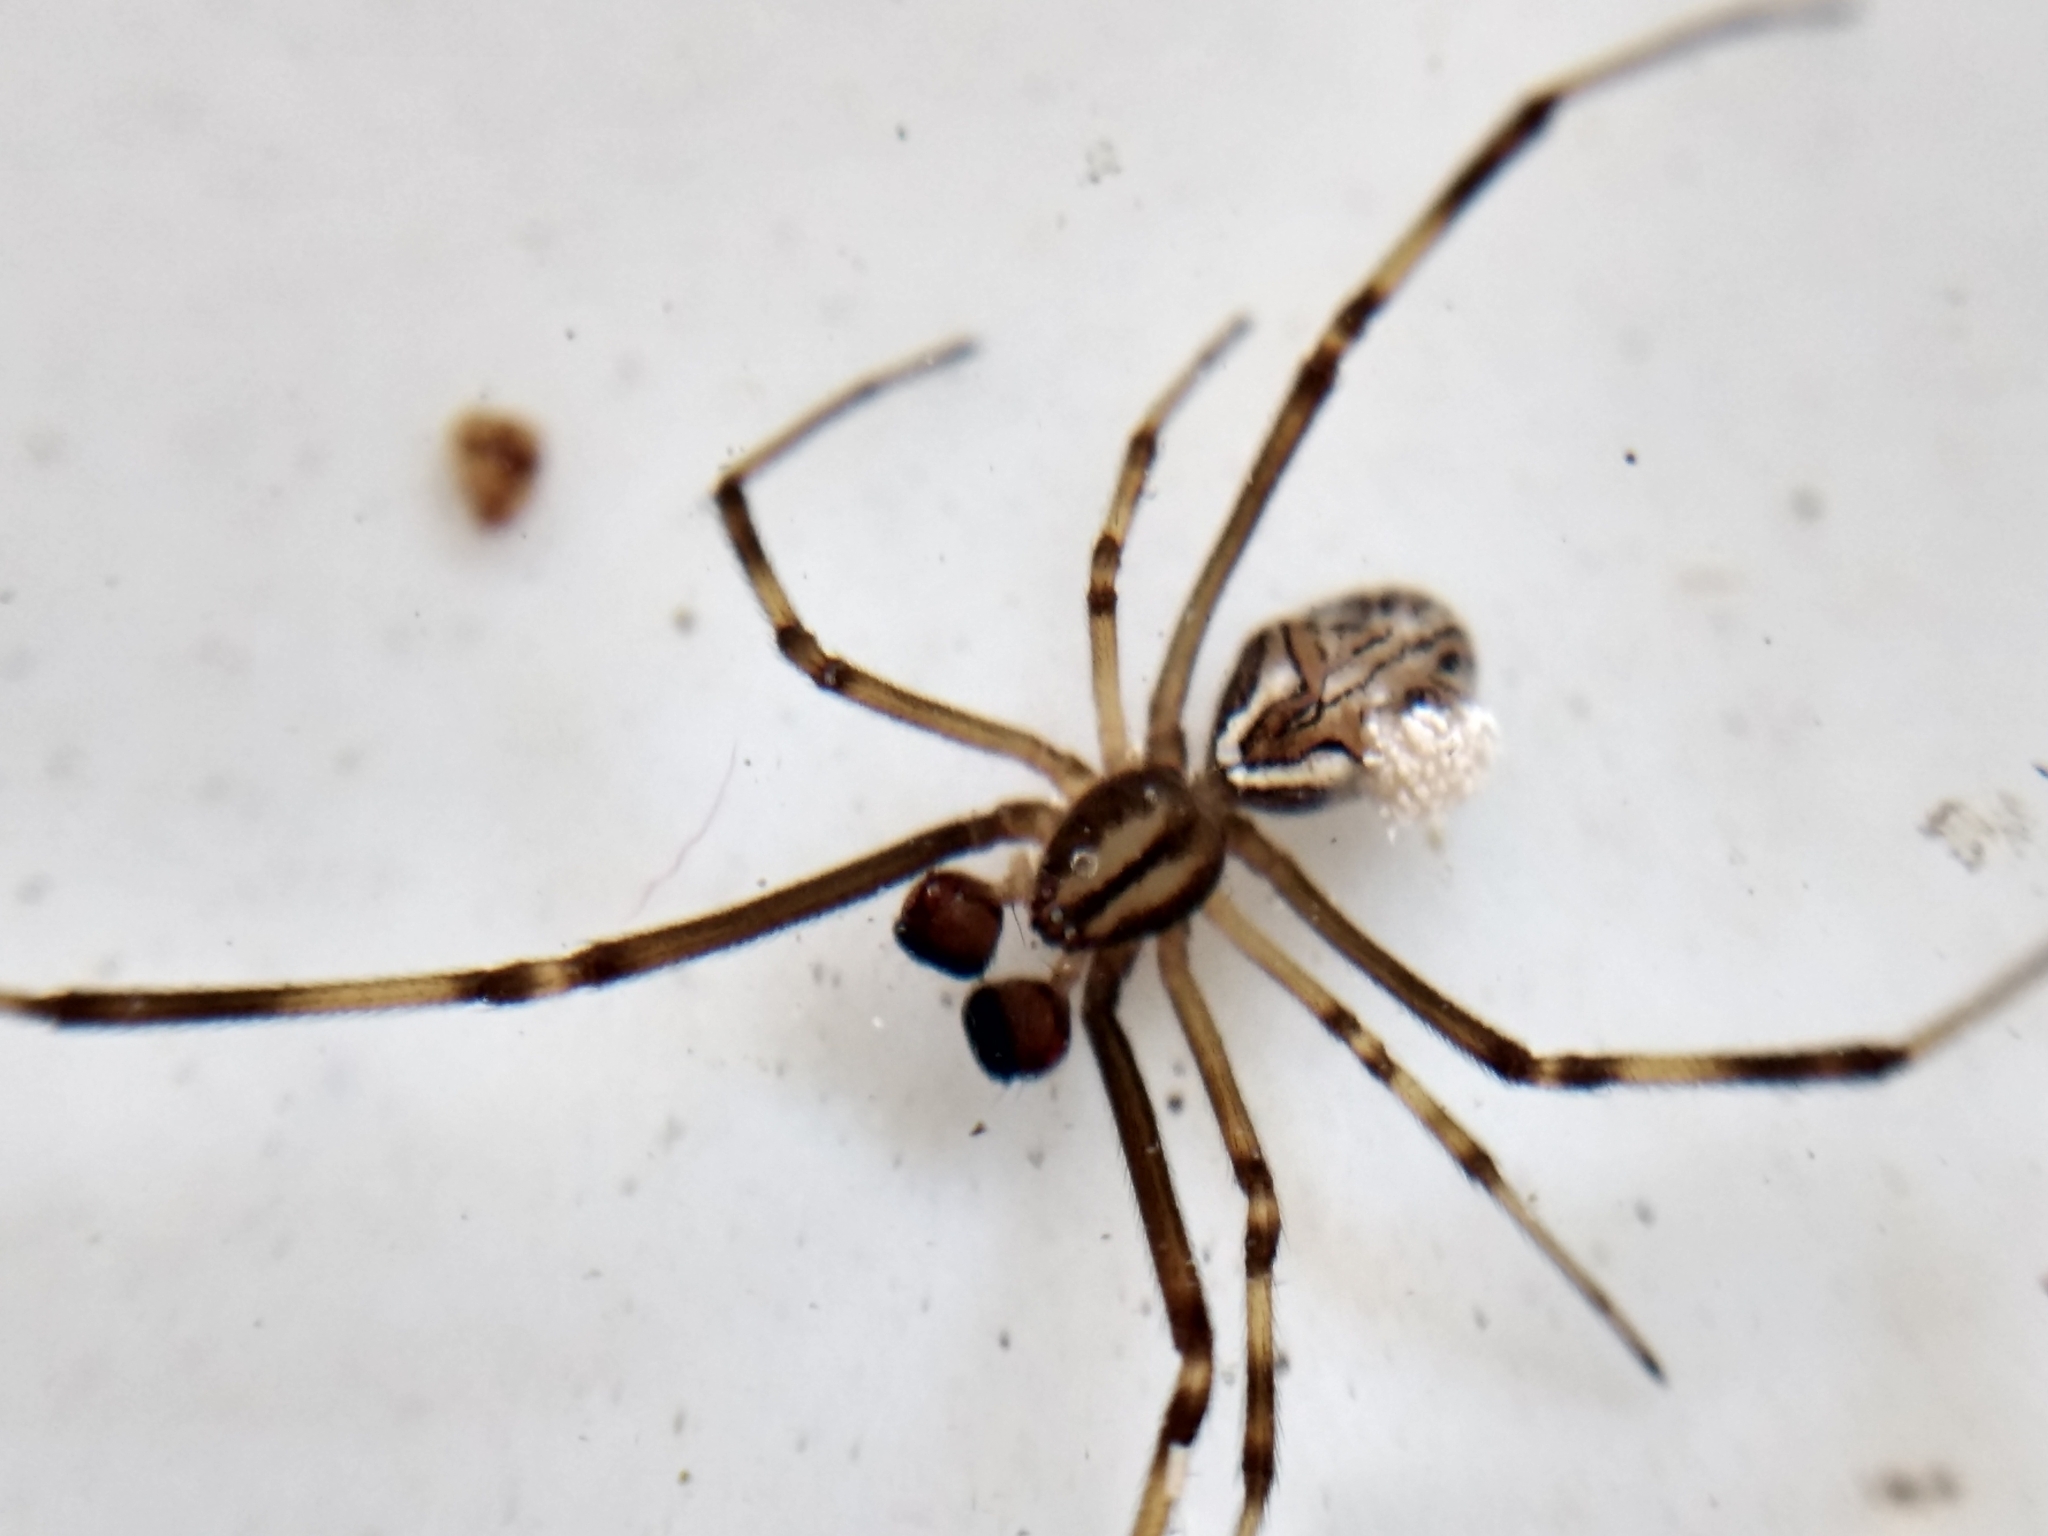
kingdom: Animalia
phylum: Arthropoda
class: Arachnida
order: Araneae
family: Theridiidae
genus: Latrodectus
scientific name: Latrodectus hesperus
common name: Western black widow
